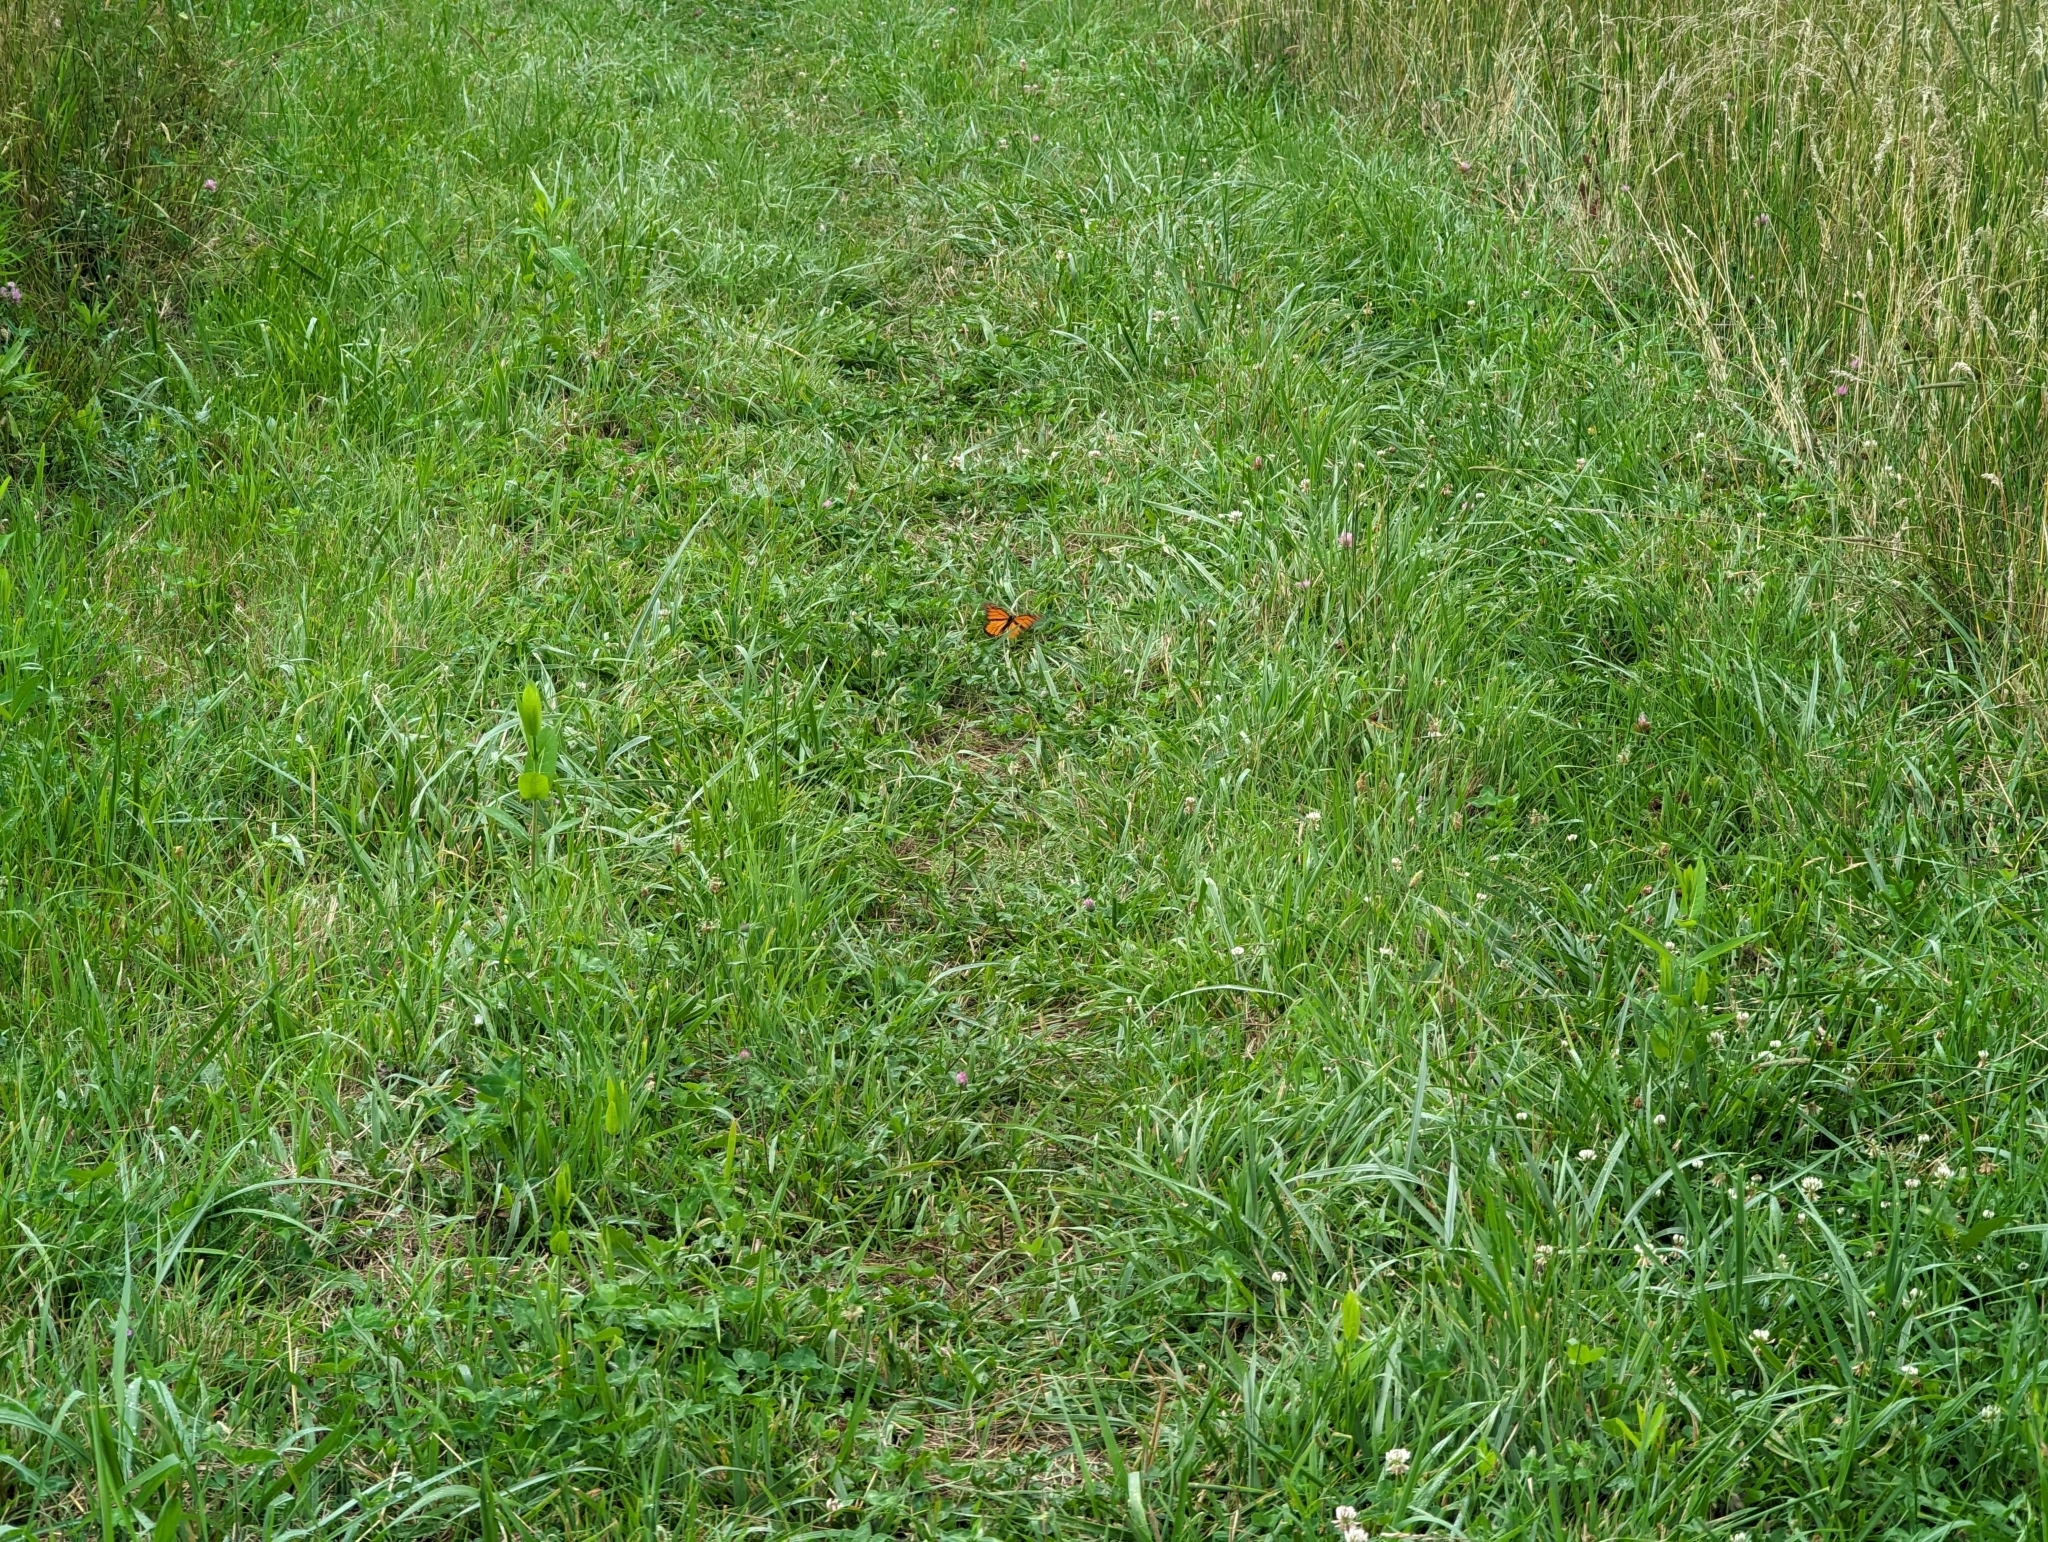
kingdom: Animalia
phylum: Arthropoda
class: Insecta
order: Lepidoptera
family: Nymphalidae
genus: Danaus
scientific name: Danaus plexippus
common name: Monarch
